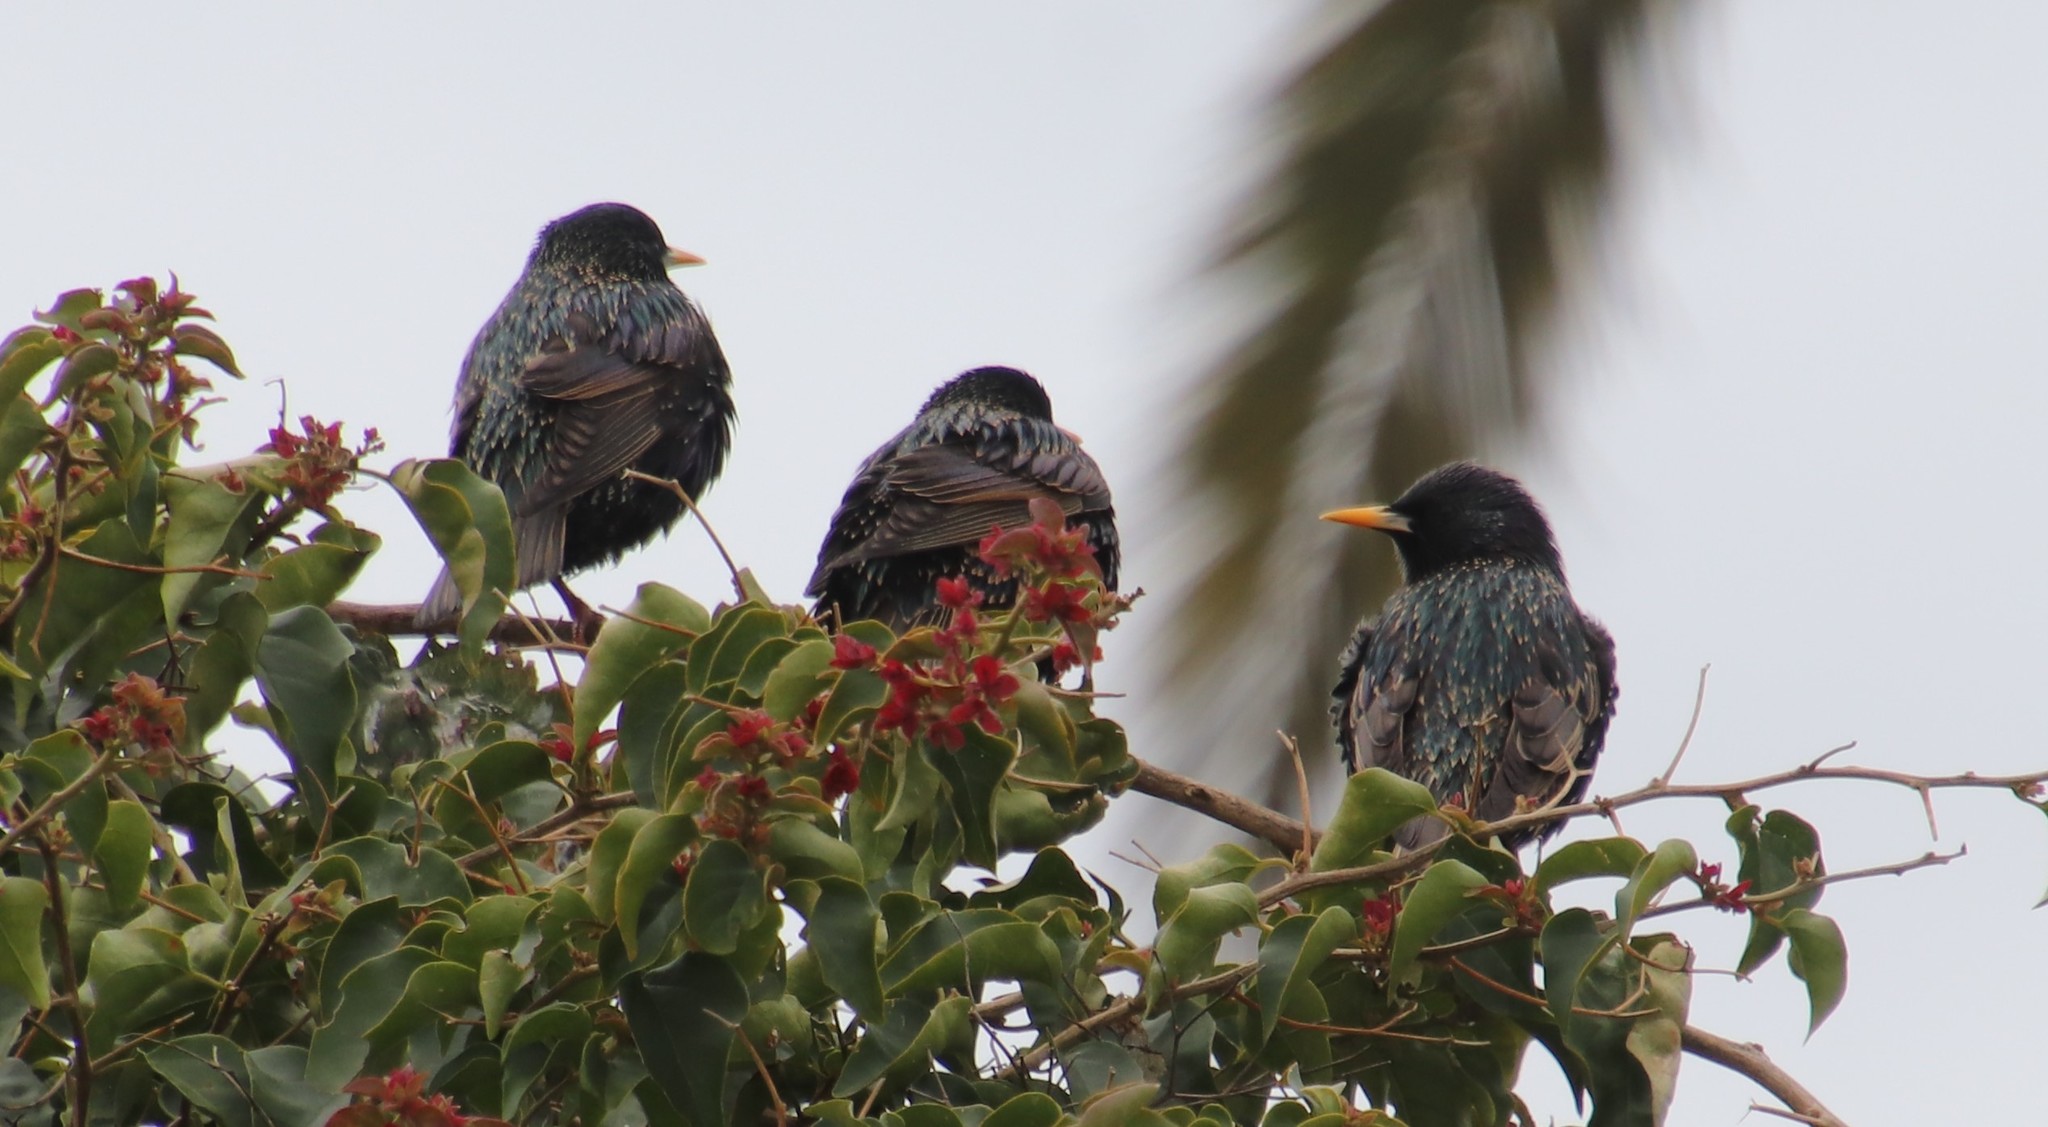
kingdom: Animalia
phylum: Chordata
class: Aves
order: Passeriformes
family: Sturnidae
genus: Sturnus
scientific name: Sturnus vulgaris
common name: Common starling
